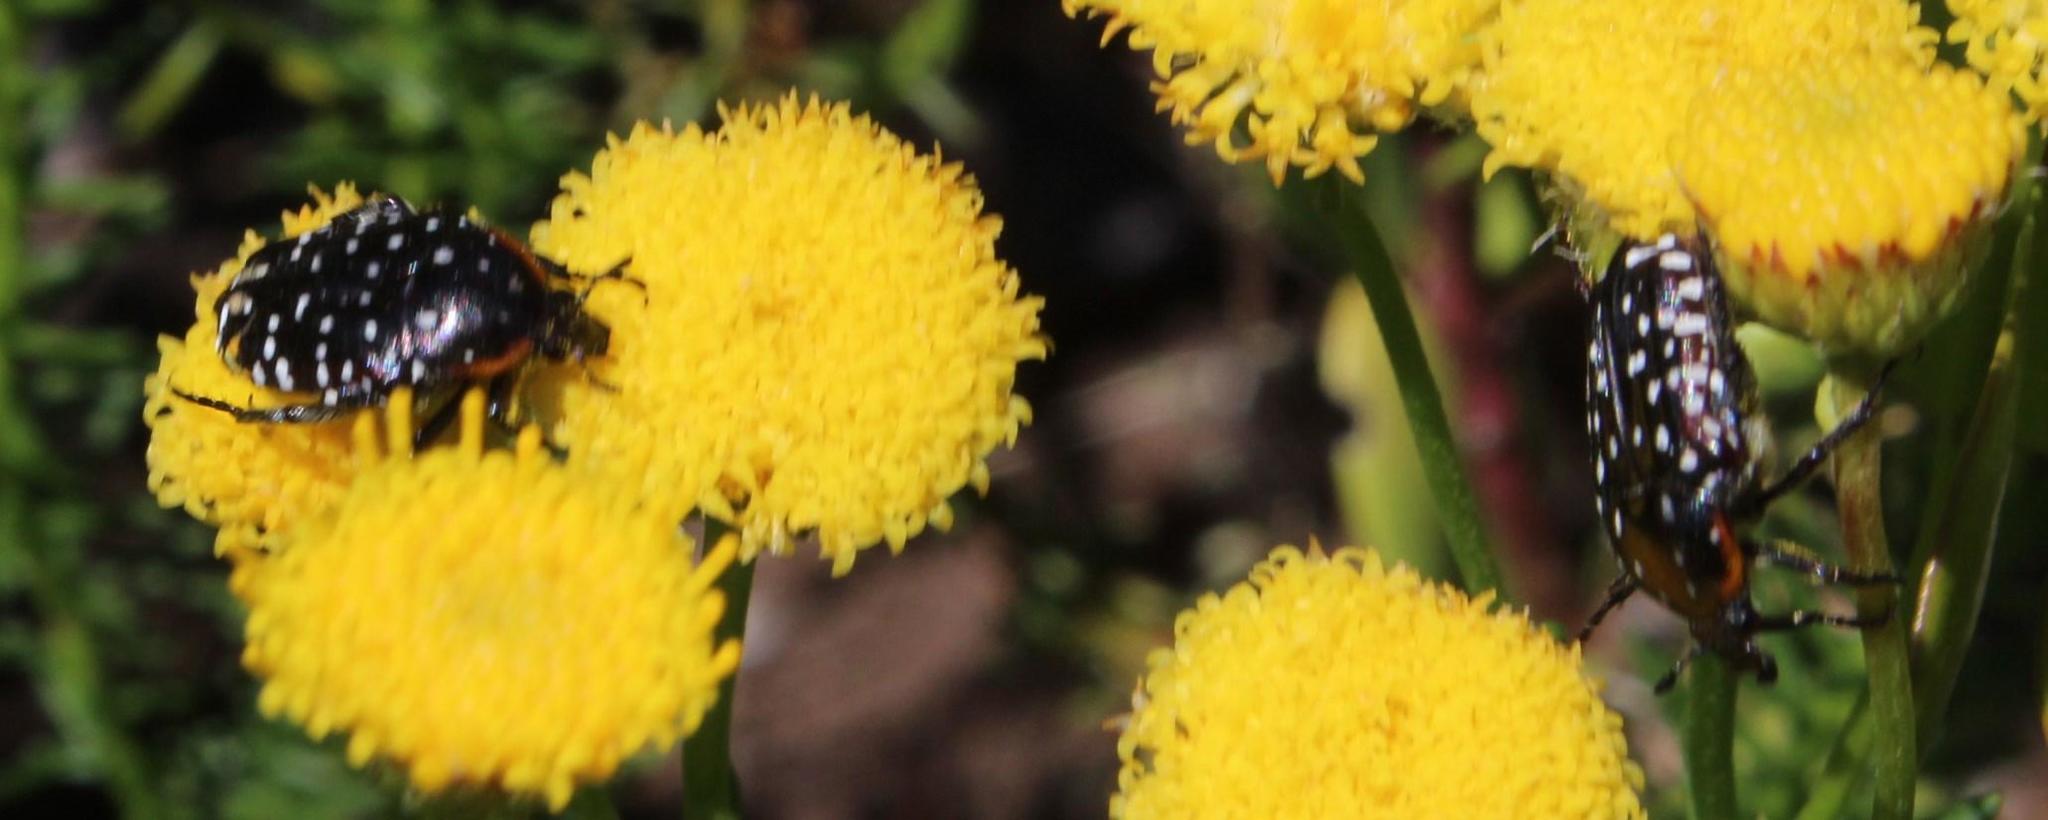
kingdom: Animalia
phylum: Arthropoda
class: Insecta
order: Coleoptera
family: Scarabaeidae
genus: Oxythyrea
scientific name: Oxythyrea
